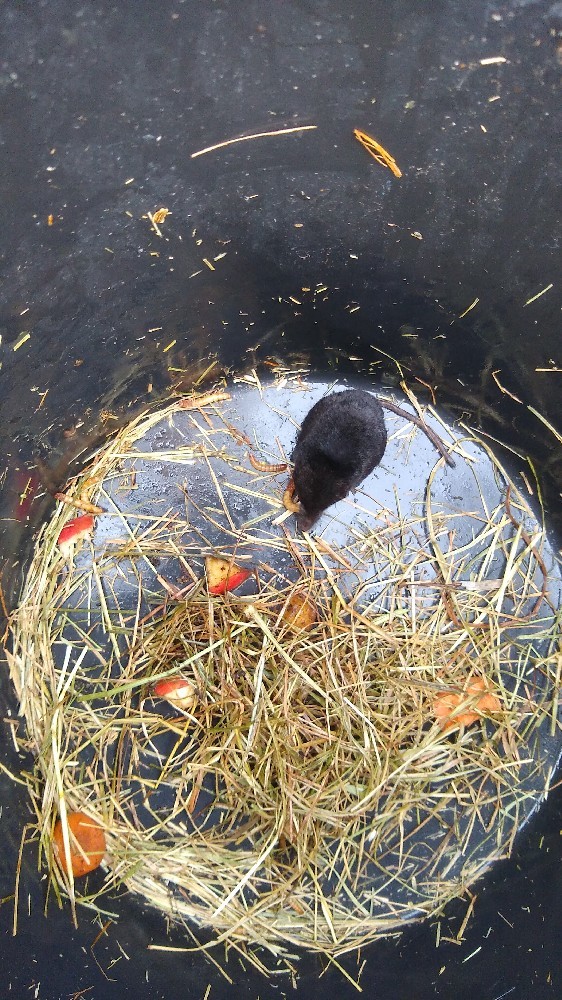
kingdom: Animalia
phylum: Chordata
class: Mammalia
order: Soricomorpha
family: Soricidae
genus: Neomys
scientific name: Neomys fodiens
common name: Eurasian water shrew
